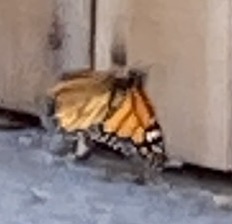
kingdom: Animalia
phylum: Arthropoda
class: Insecta
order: Lepidoptera
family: Nymphalidae
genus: Danaus
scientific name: Danaus plexippus
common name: Monarch
